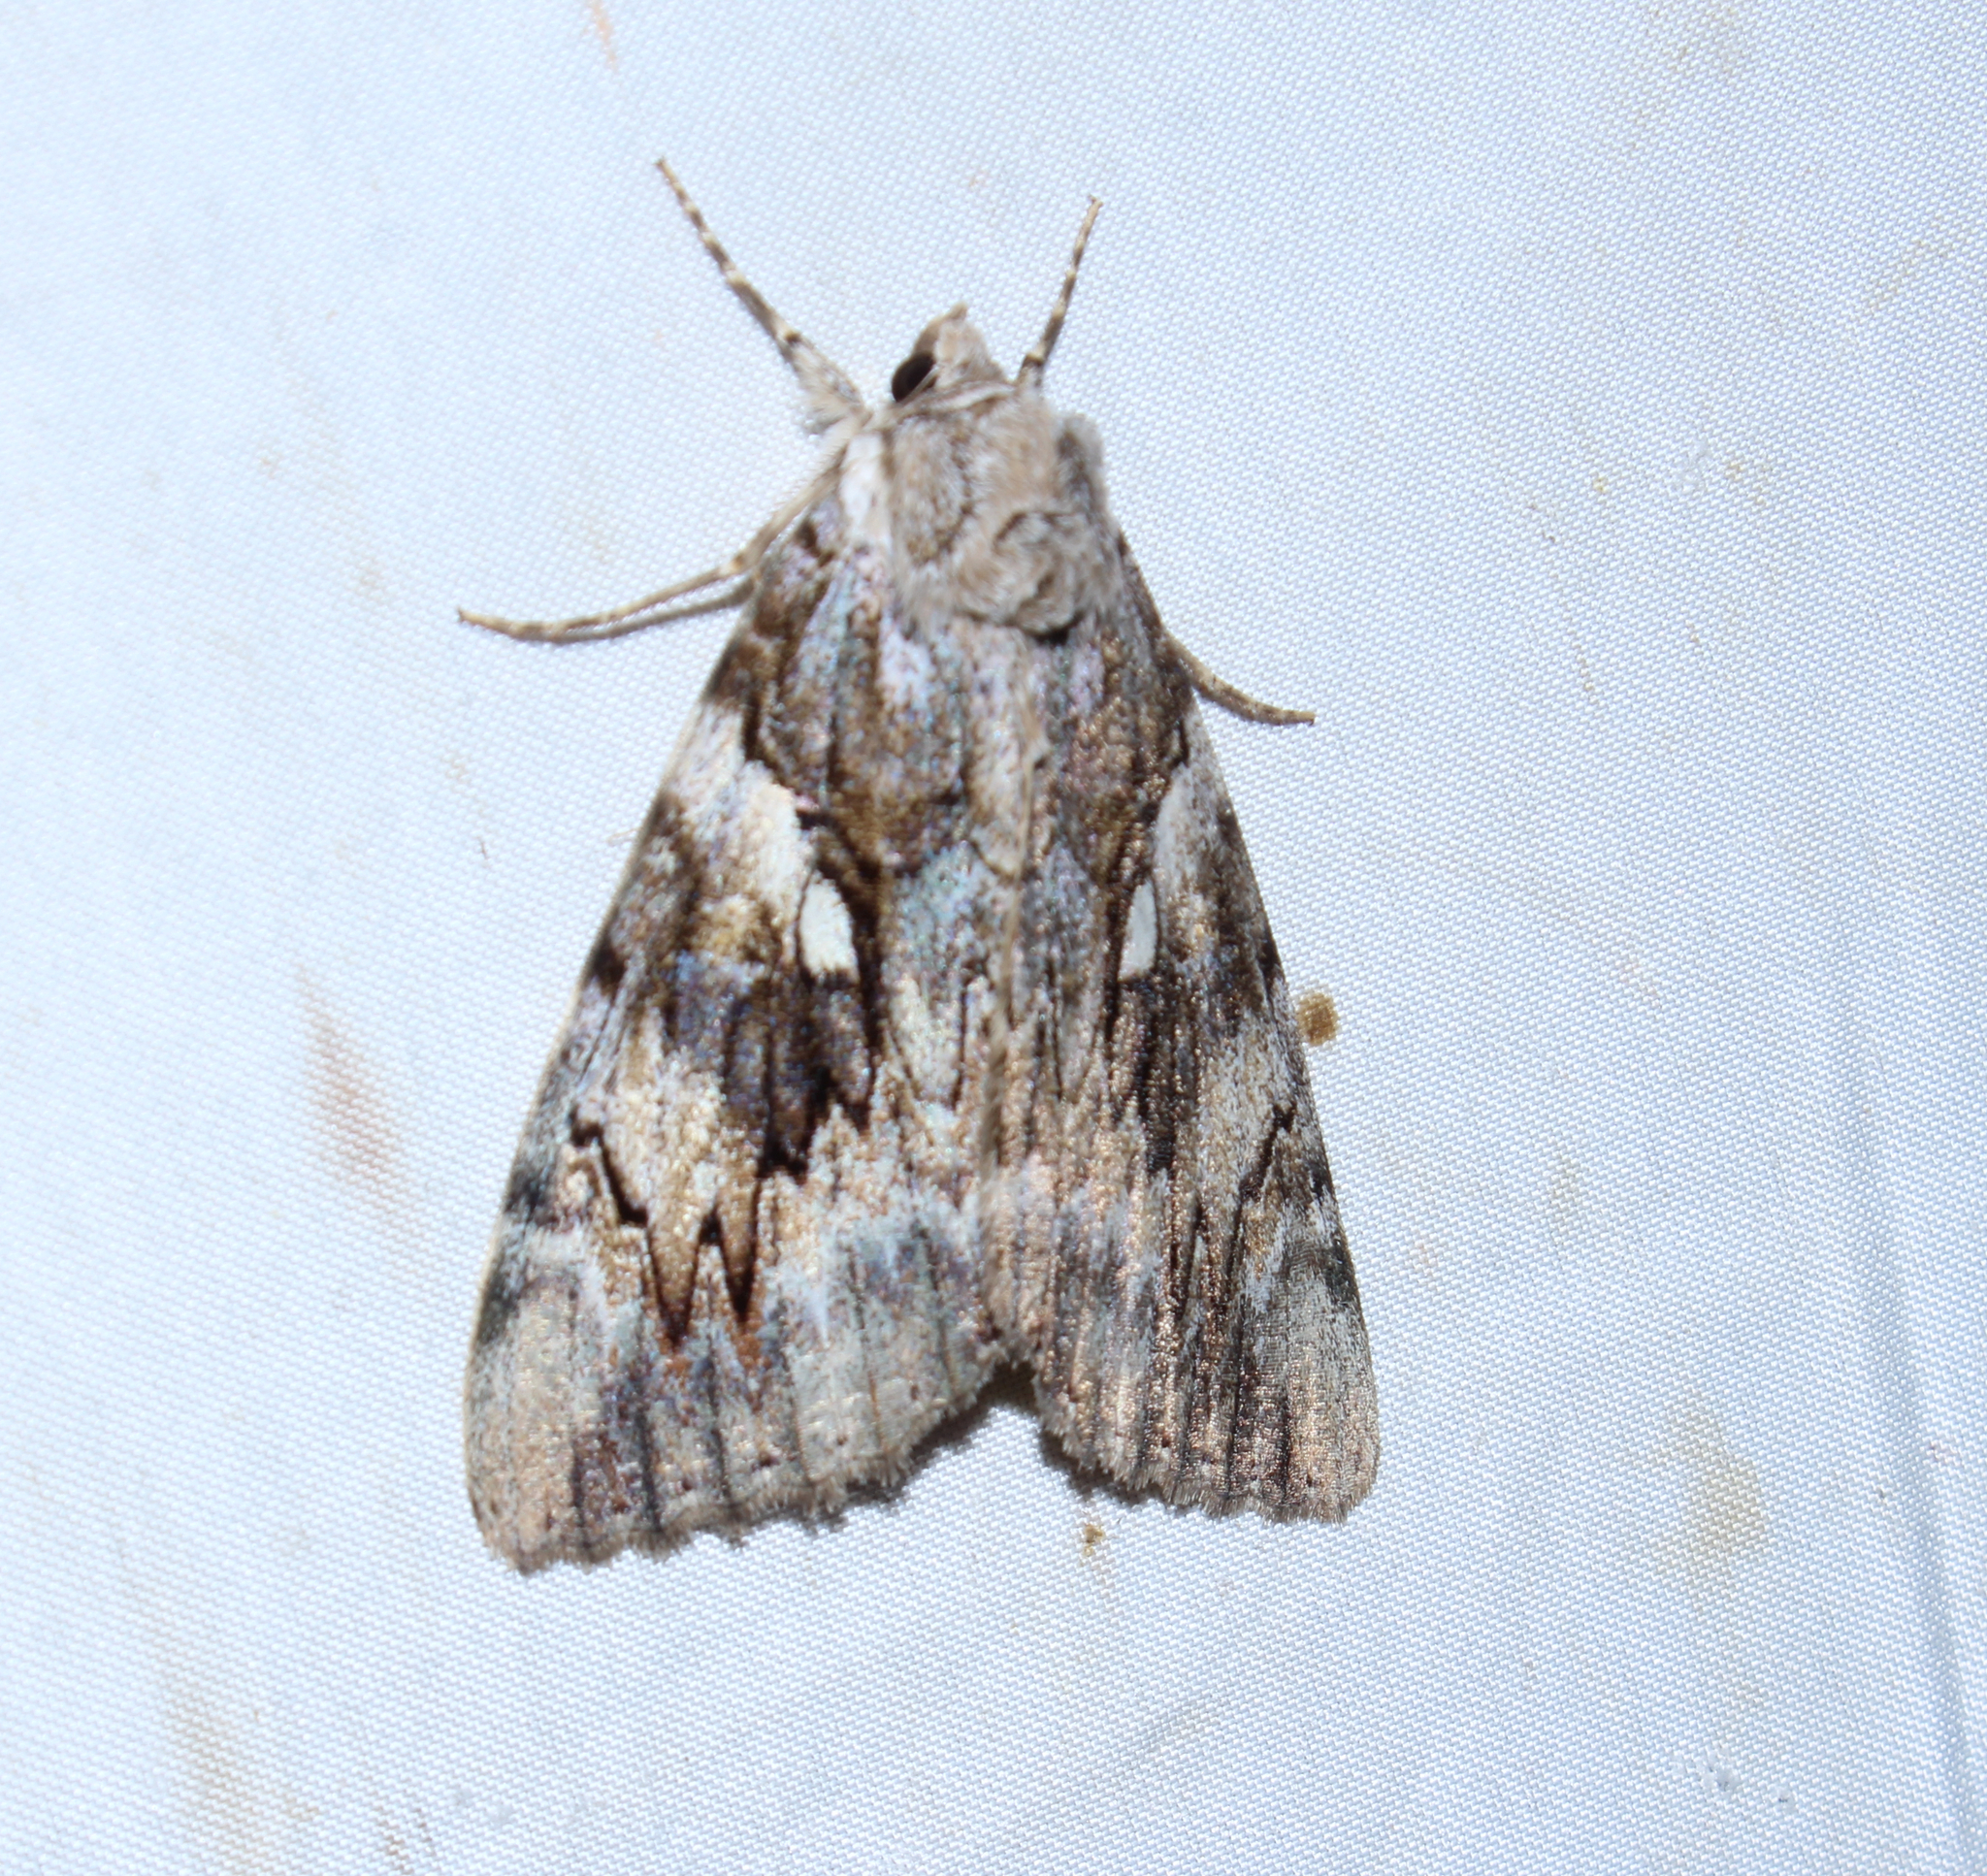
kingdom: Animalia
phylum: Arthropoda
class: Insecta
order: Lepidoptera
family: Erebidae
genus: Catocala
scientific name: Catocala cerogama
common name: Yellow banded underwing
